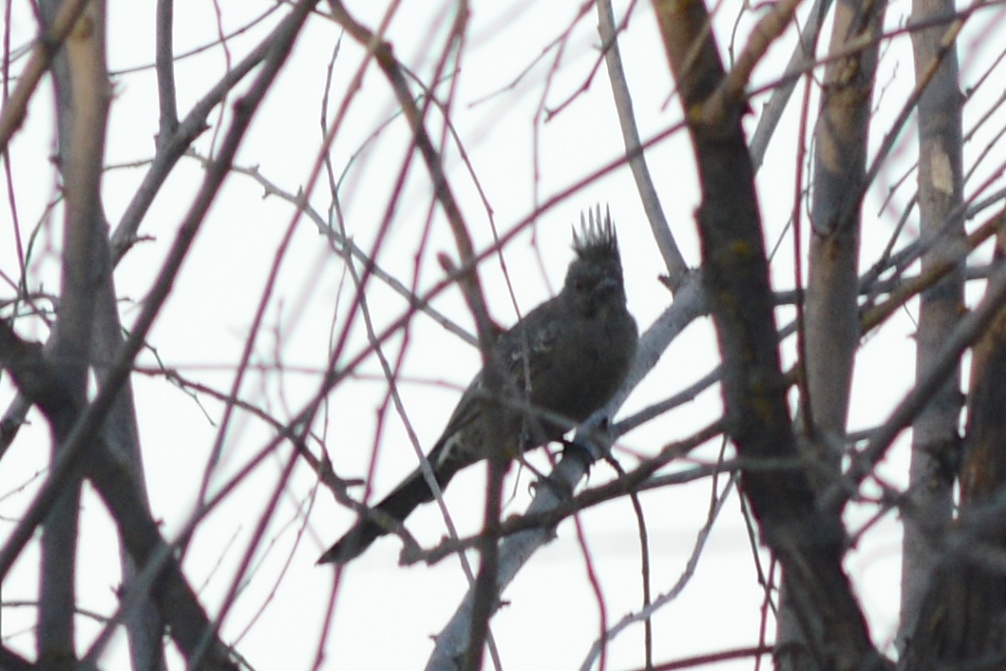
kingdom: Animalia
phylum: Chordata
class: Aves
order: Passeriformes
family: Ptilogonatidae
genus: Phainopepla
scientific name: Phainopepla nitens
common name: Phainopepla
